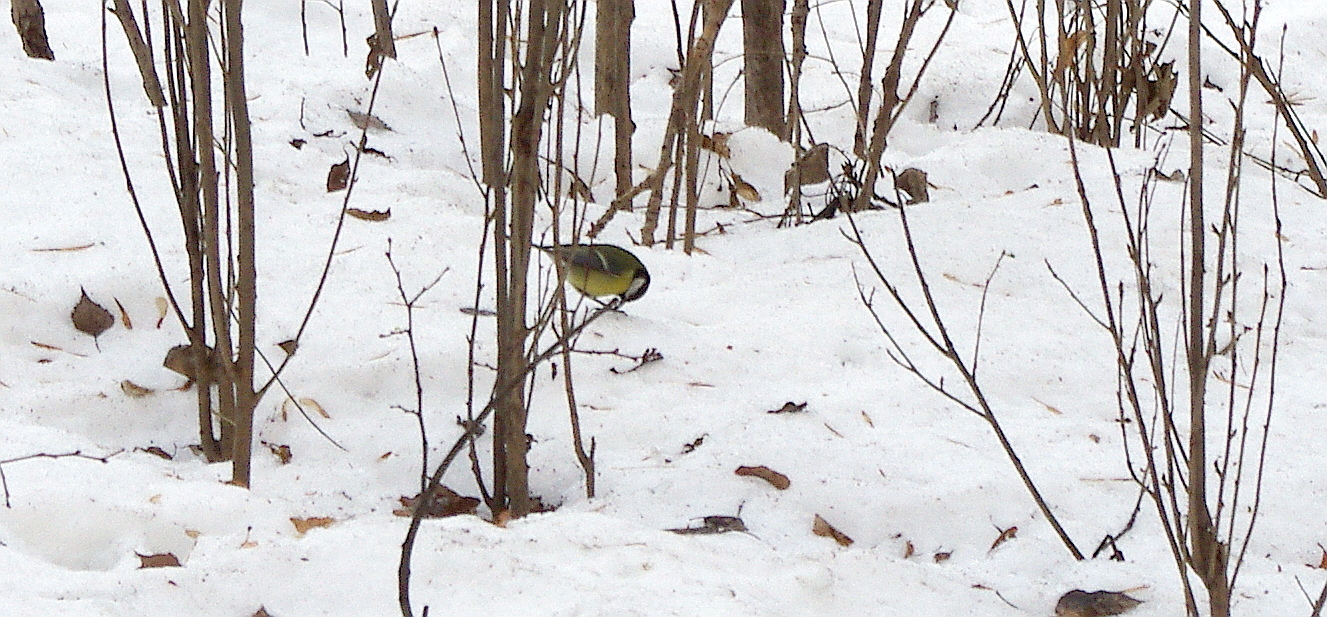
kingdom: Animalia
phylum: Chordata
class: Aves
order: Passeriformes
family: Paridae
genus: Parus
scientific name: Parus major
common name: Great tit
